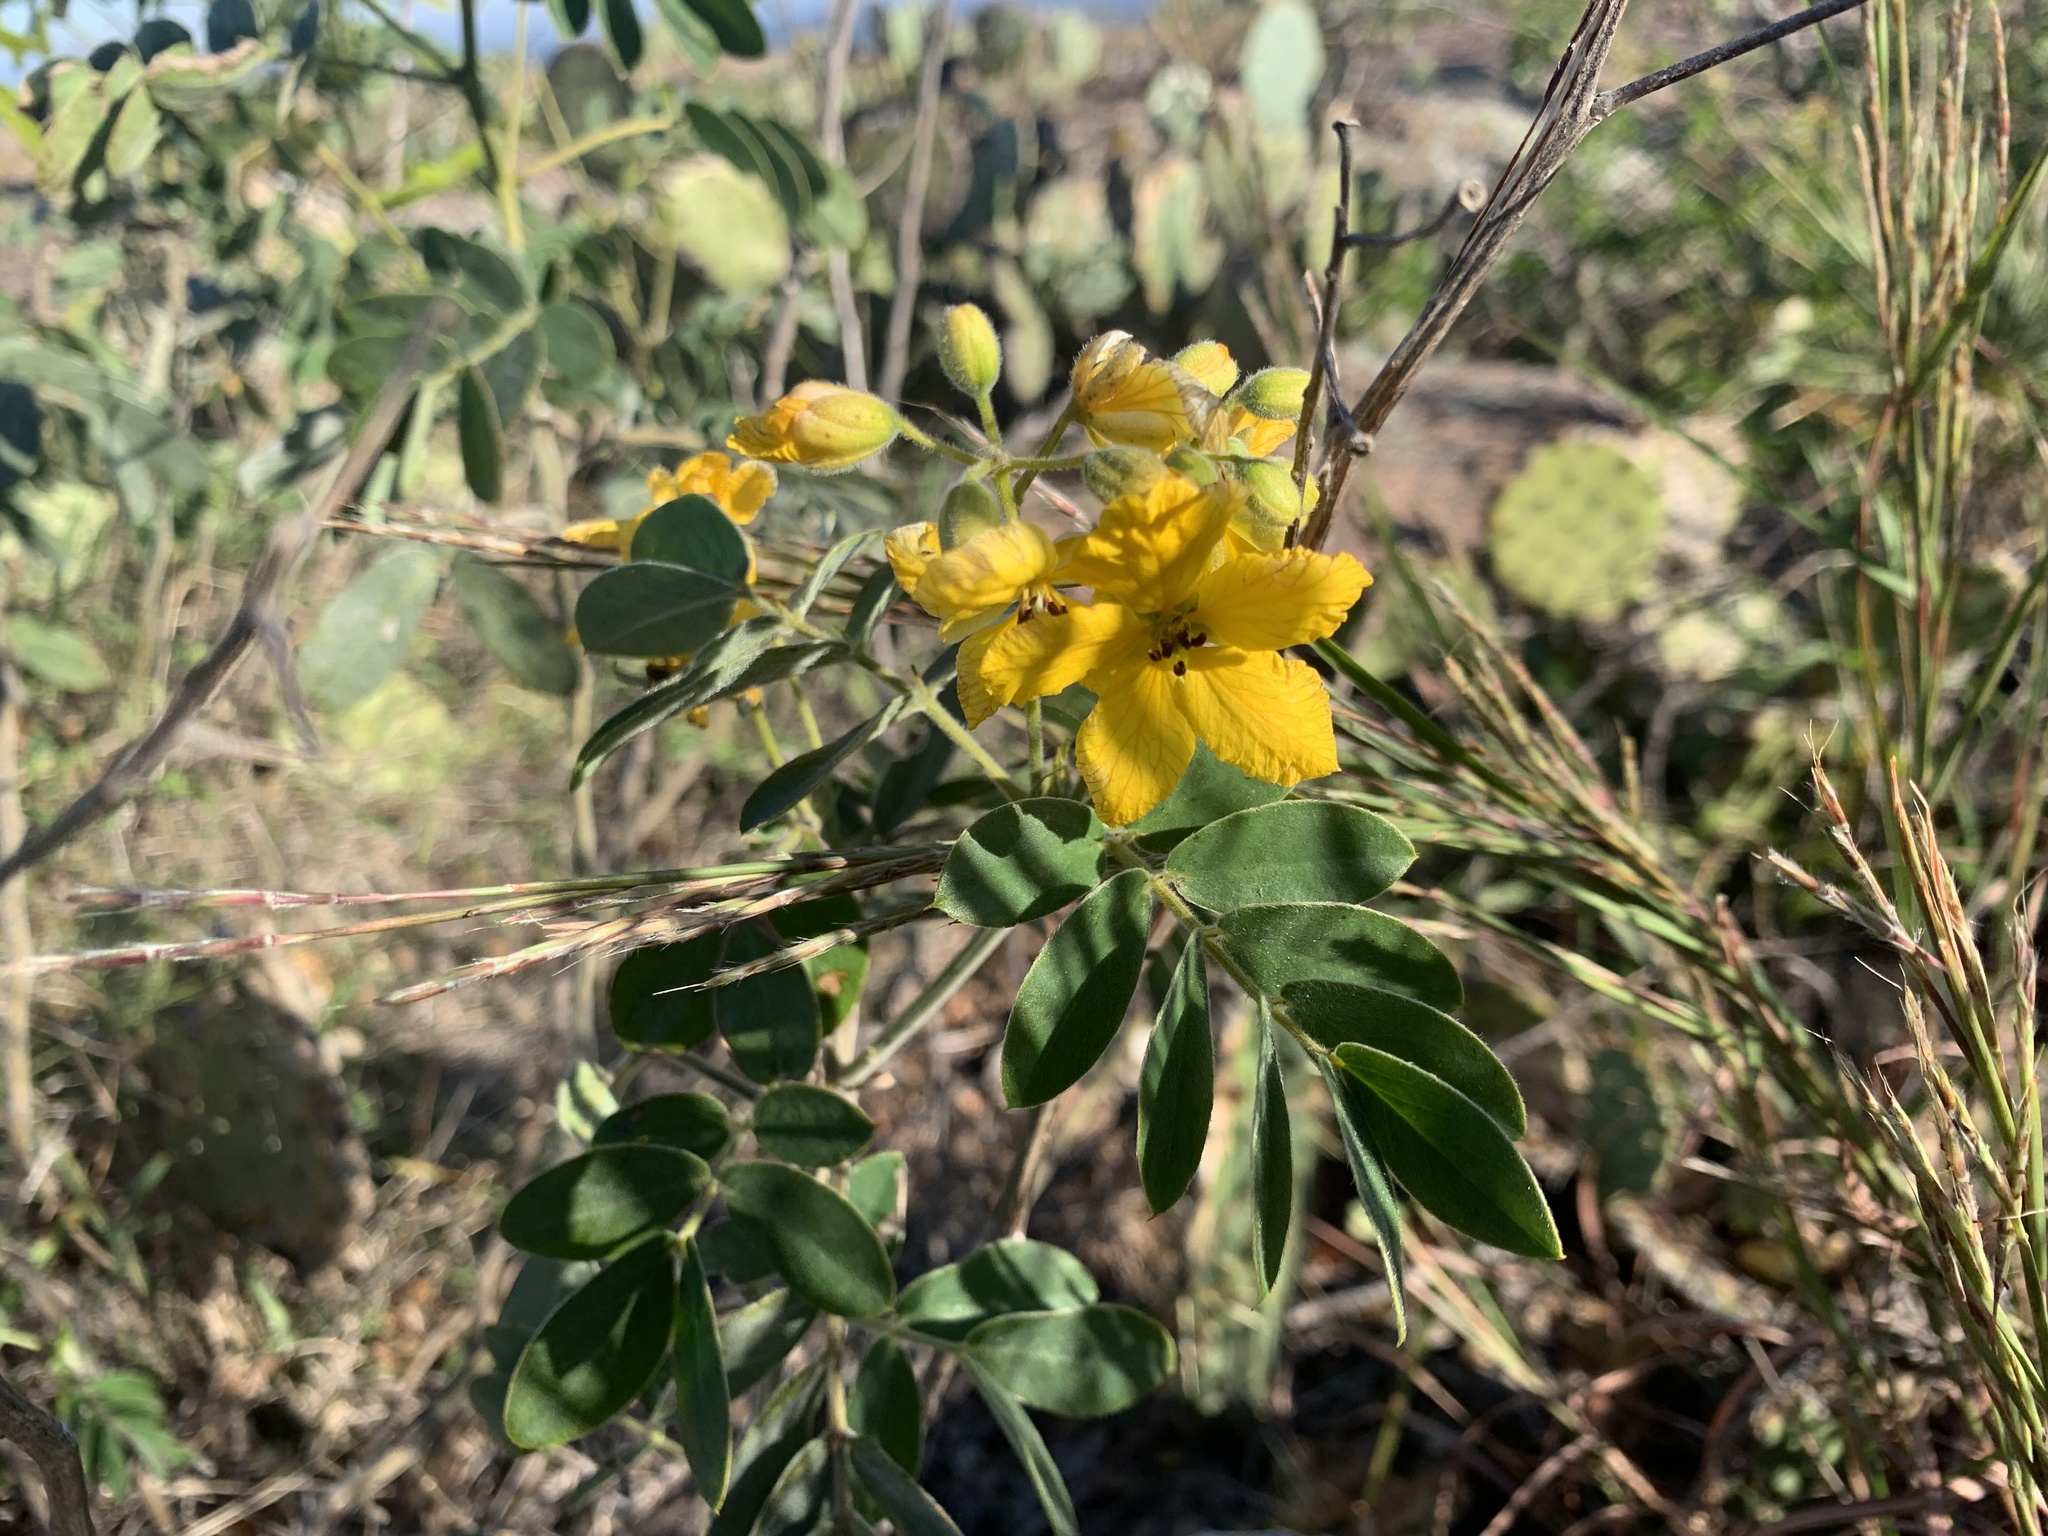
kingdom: Plantae
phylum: Tracheophyta
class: Magnoliopsida
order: Fabales
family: Fabaceae
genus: Senna
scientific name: Senna lindheimeriana
